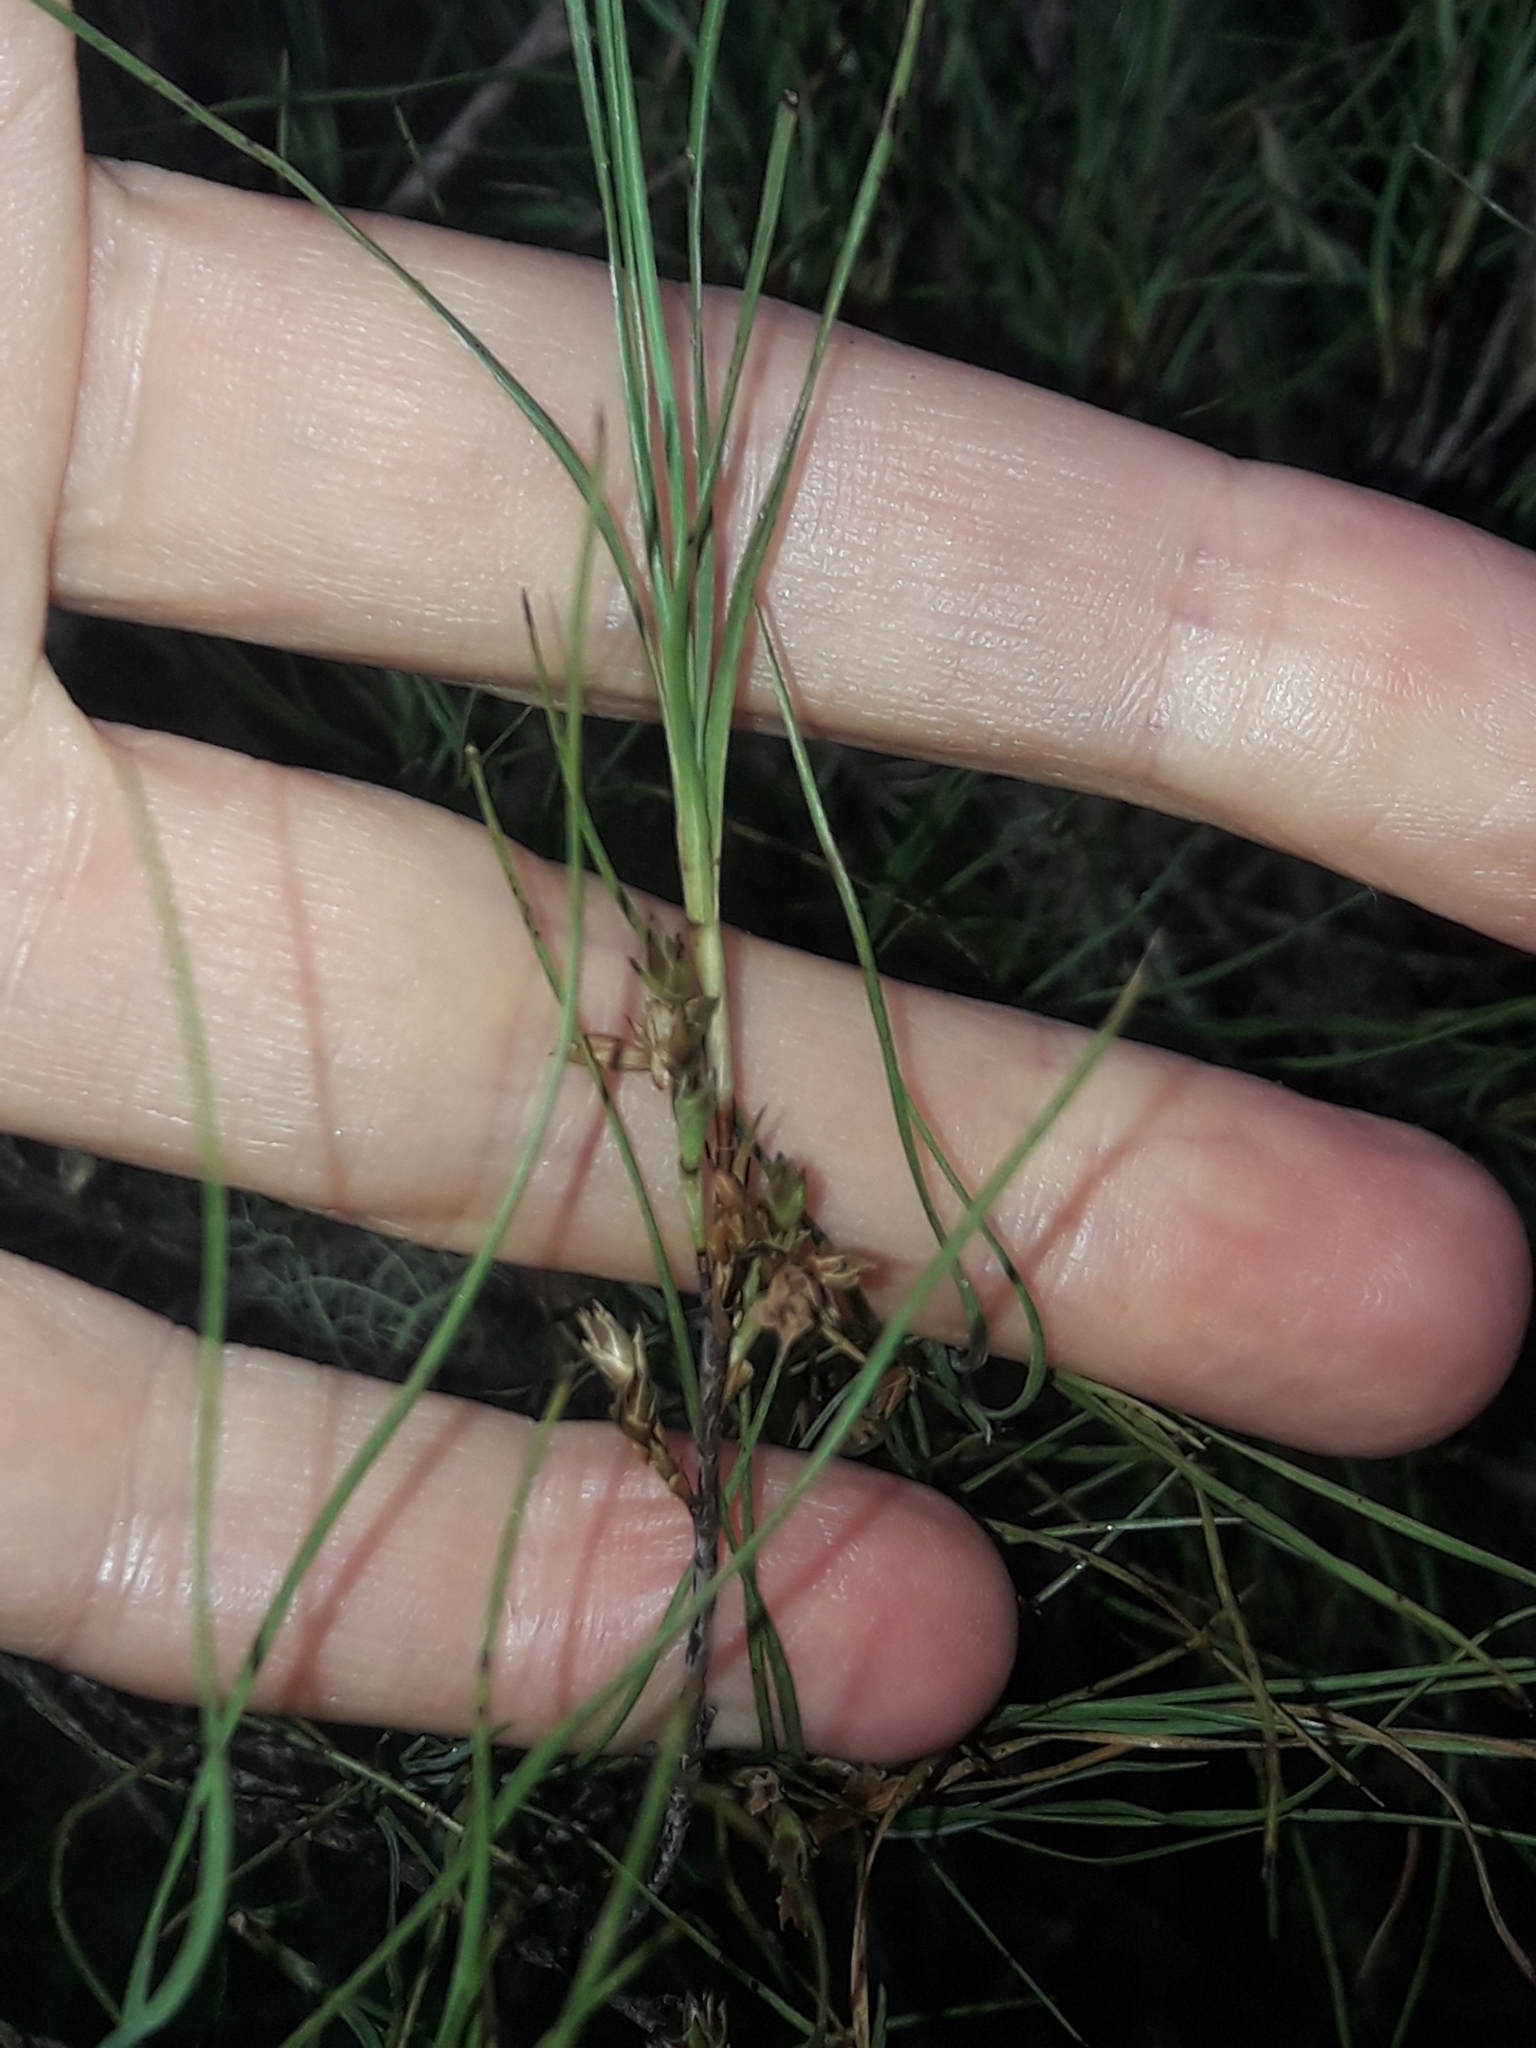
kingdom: Plantae
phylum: Tracheophyta
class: Magnoliopsida
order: Ericales
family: Ericaceae
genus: Dracophyllum
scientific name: Dracophyllum subulatum
